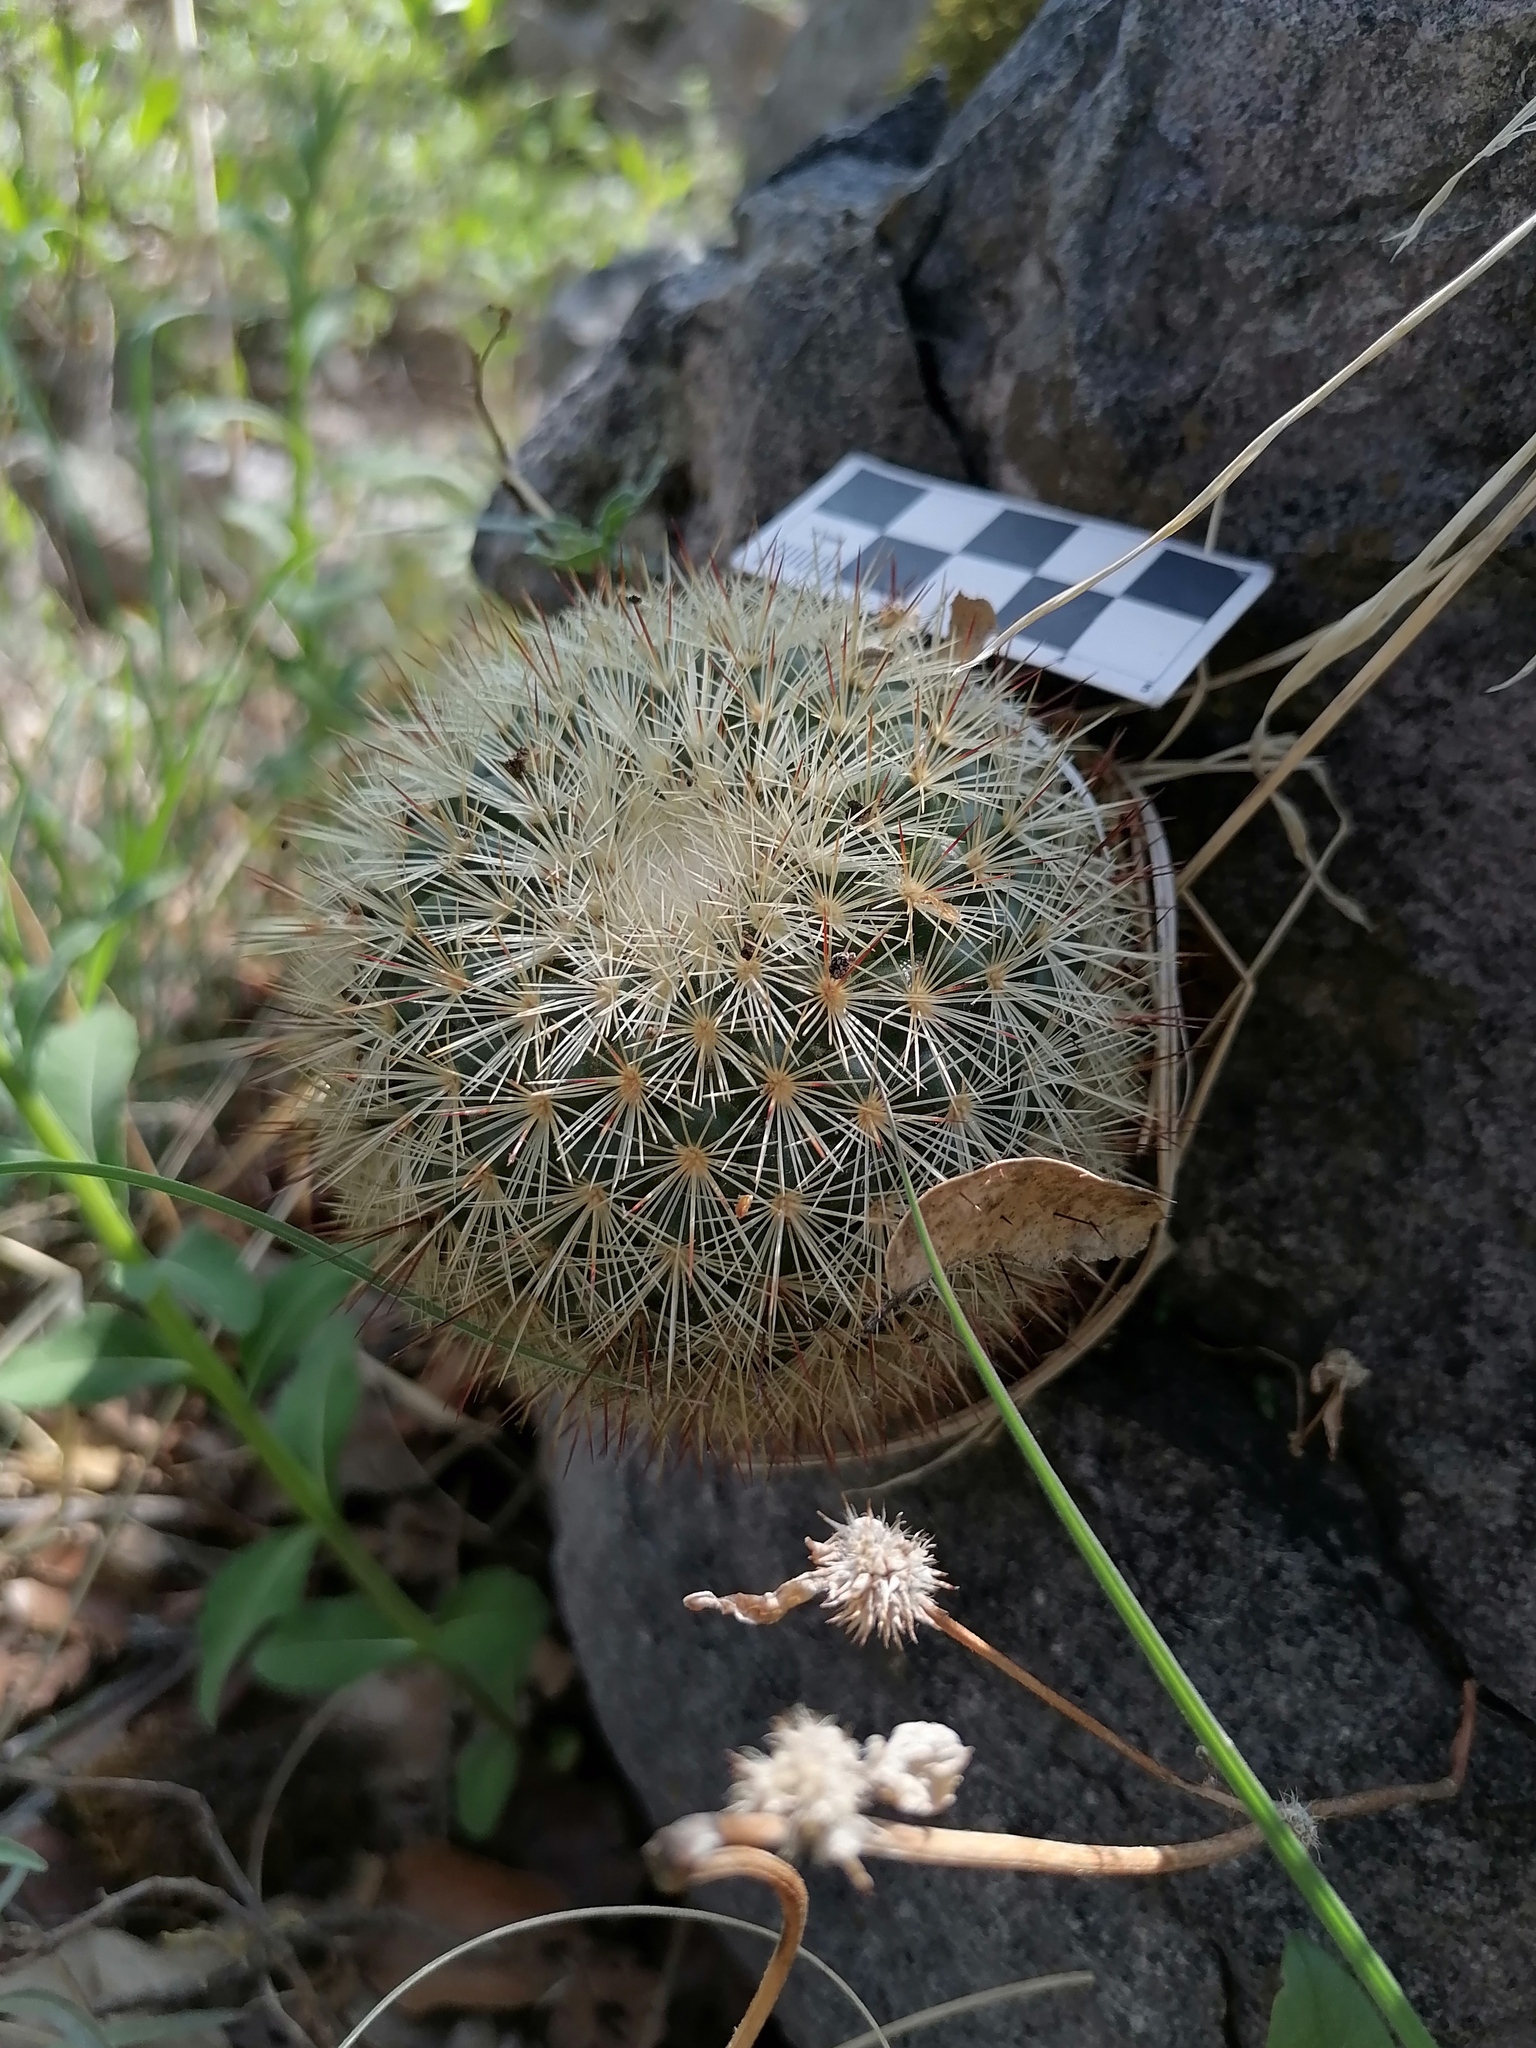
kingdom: Plantae
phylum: Tracheophyta
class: Magnoliopsida
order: Caryophyllales
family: Cactaceae
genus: Mammillaria
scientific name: Mammillaria densispina
